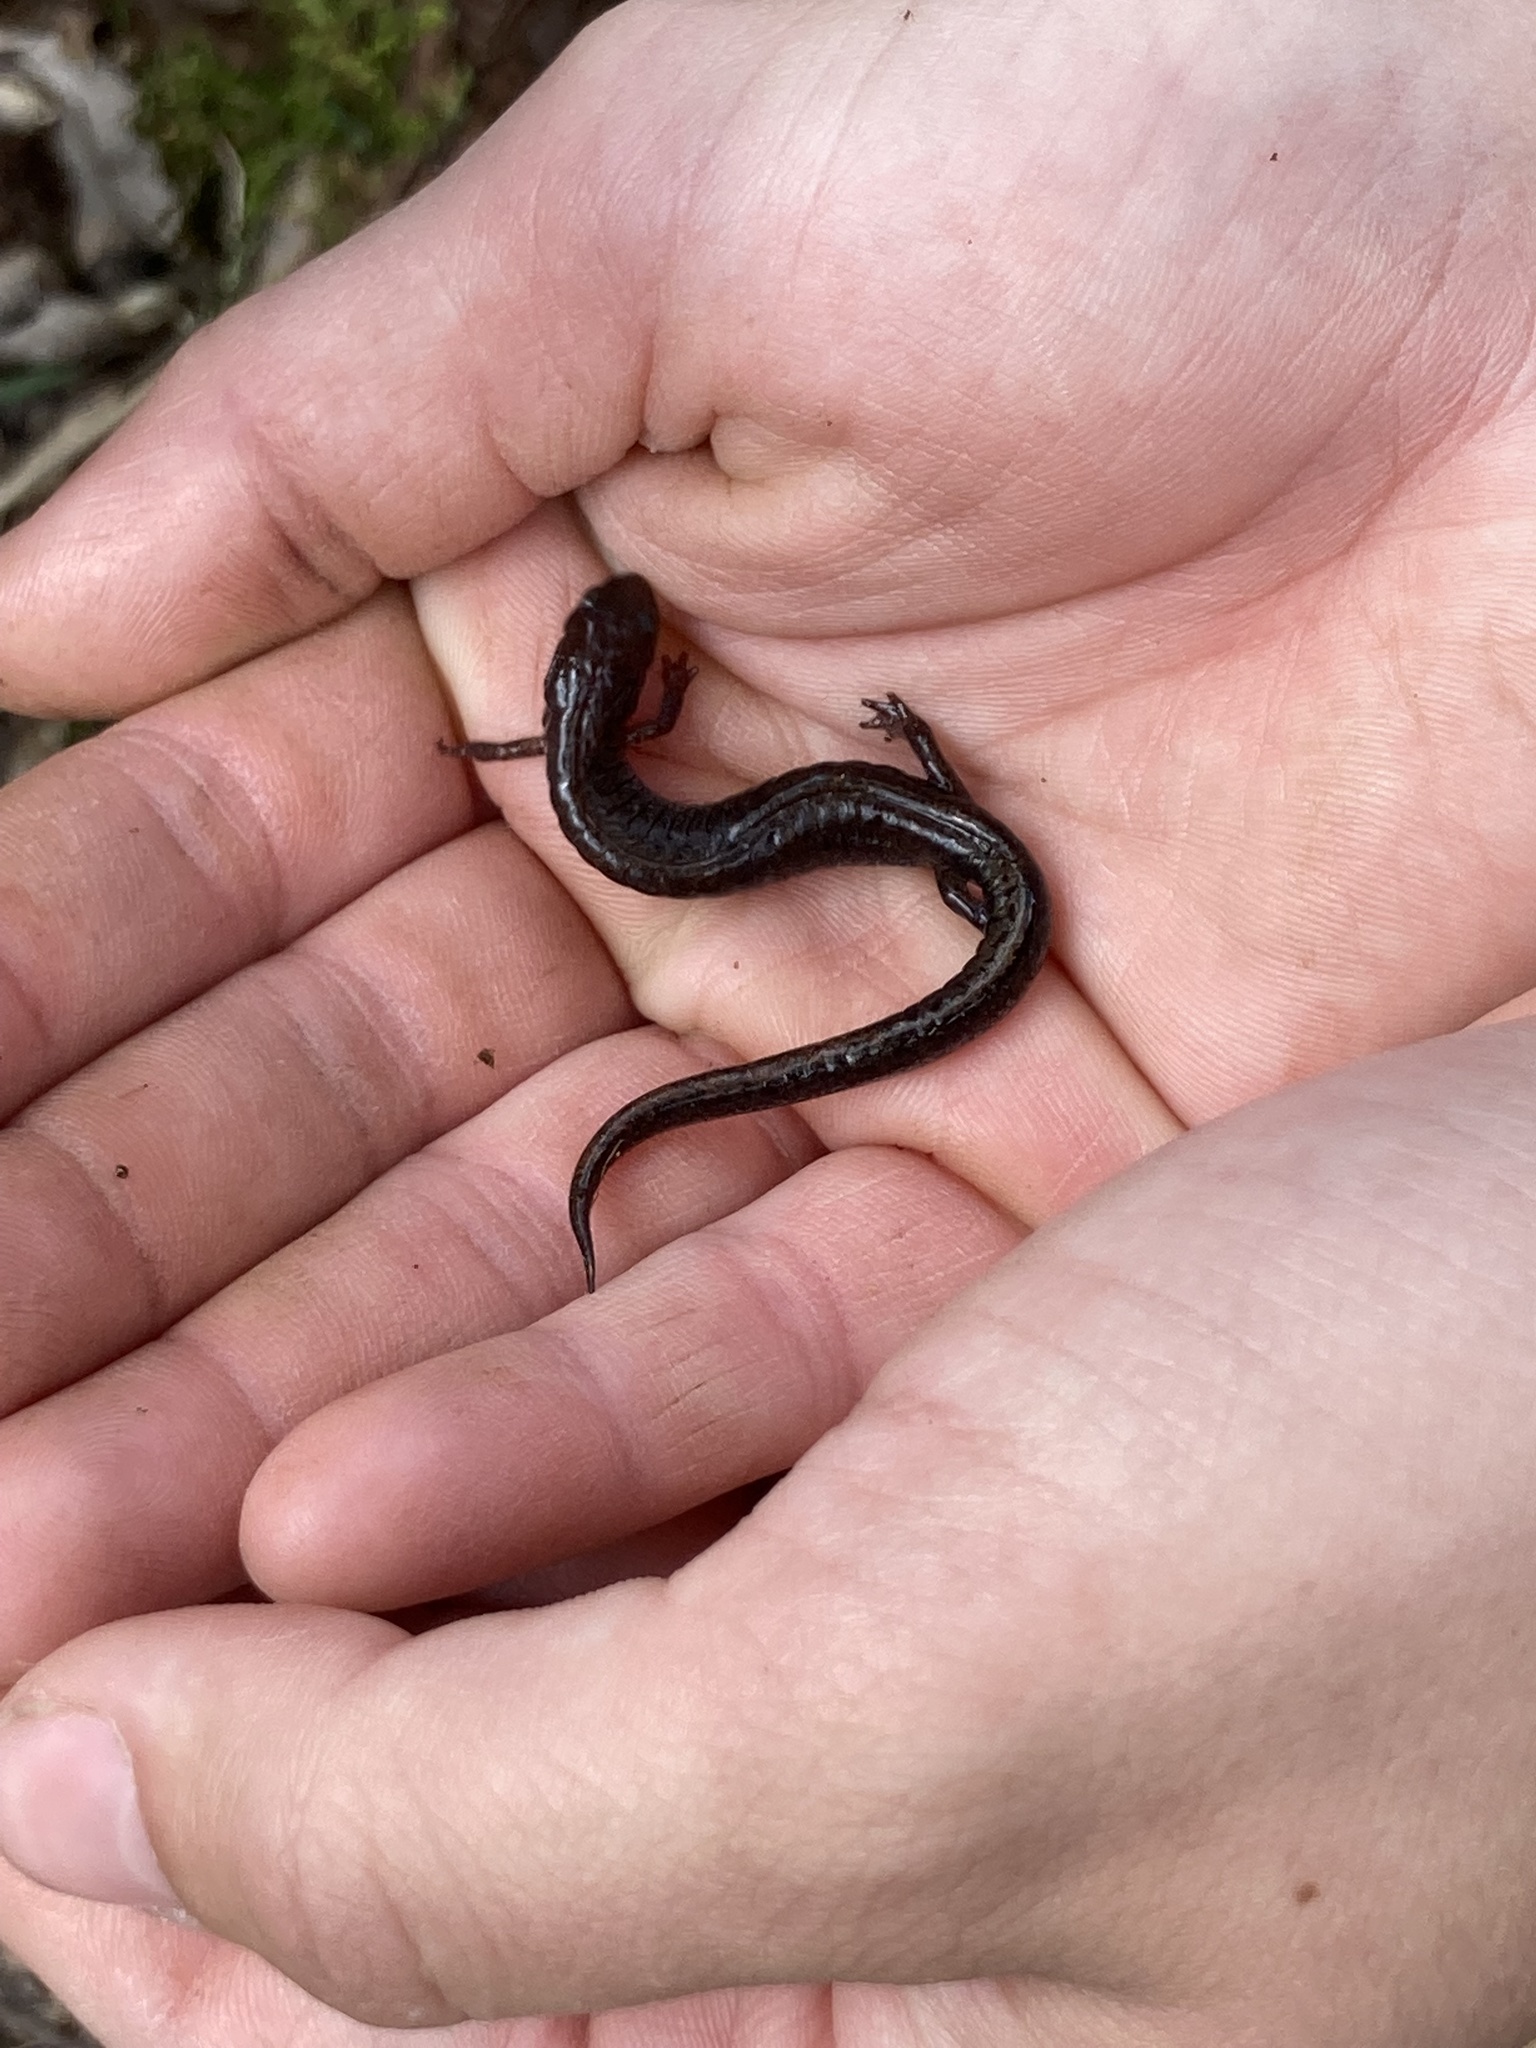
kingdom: Animalia
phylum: Chordata
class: Amphibia
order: Caudata
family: Plethodontidae
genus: Plethodon
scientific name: Plethodon dorsalis
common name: Northern zigzag salamander
